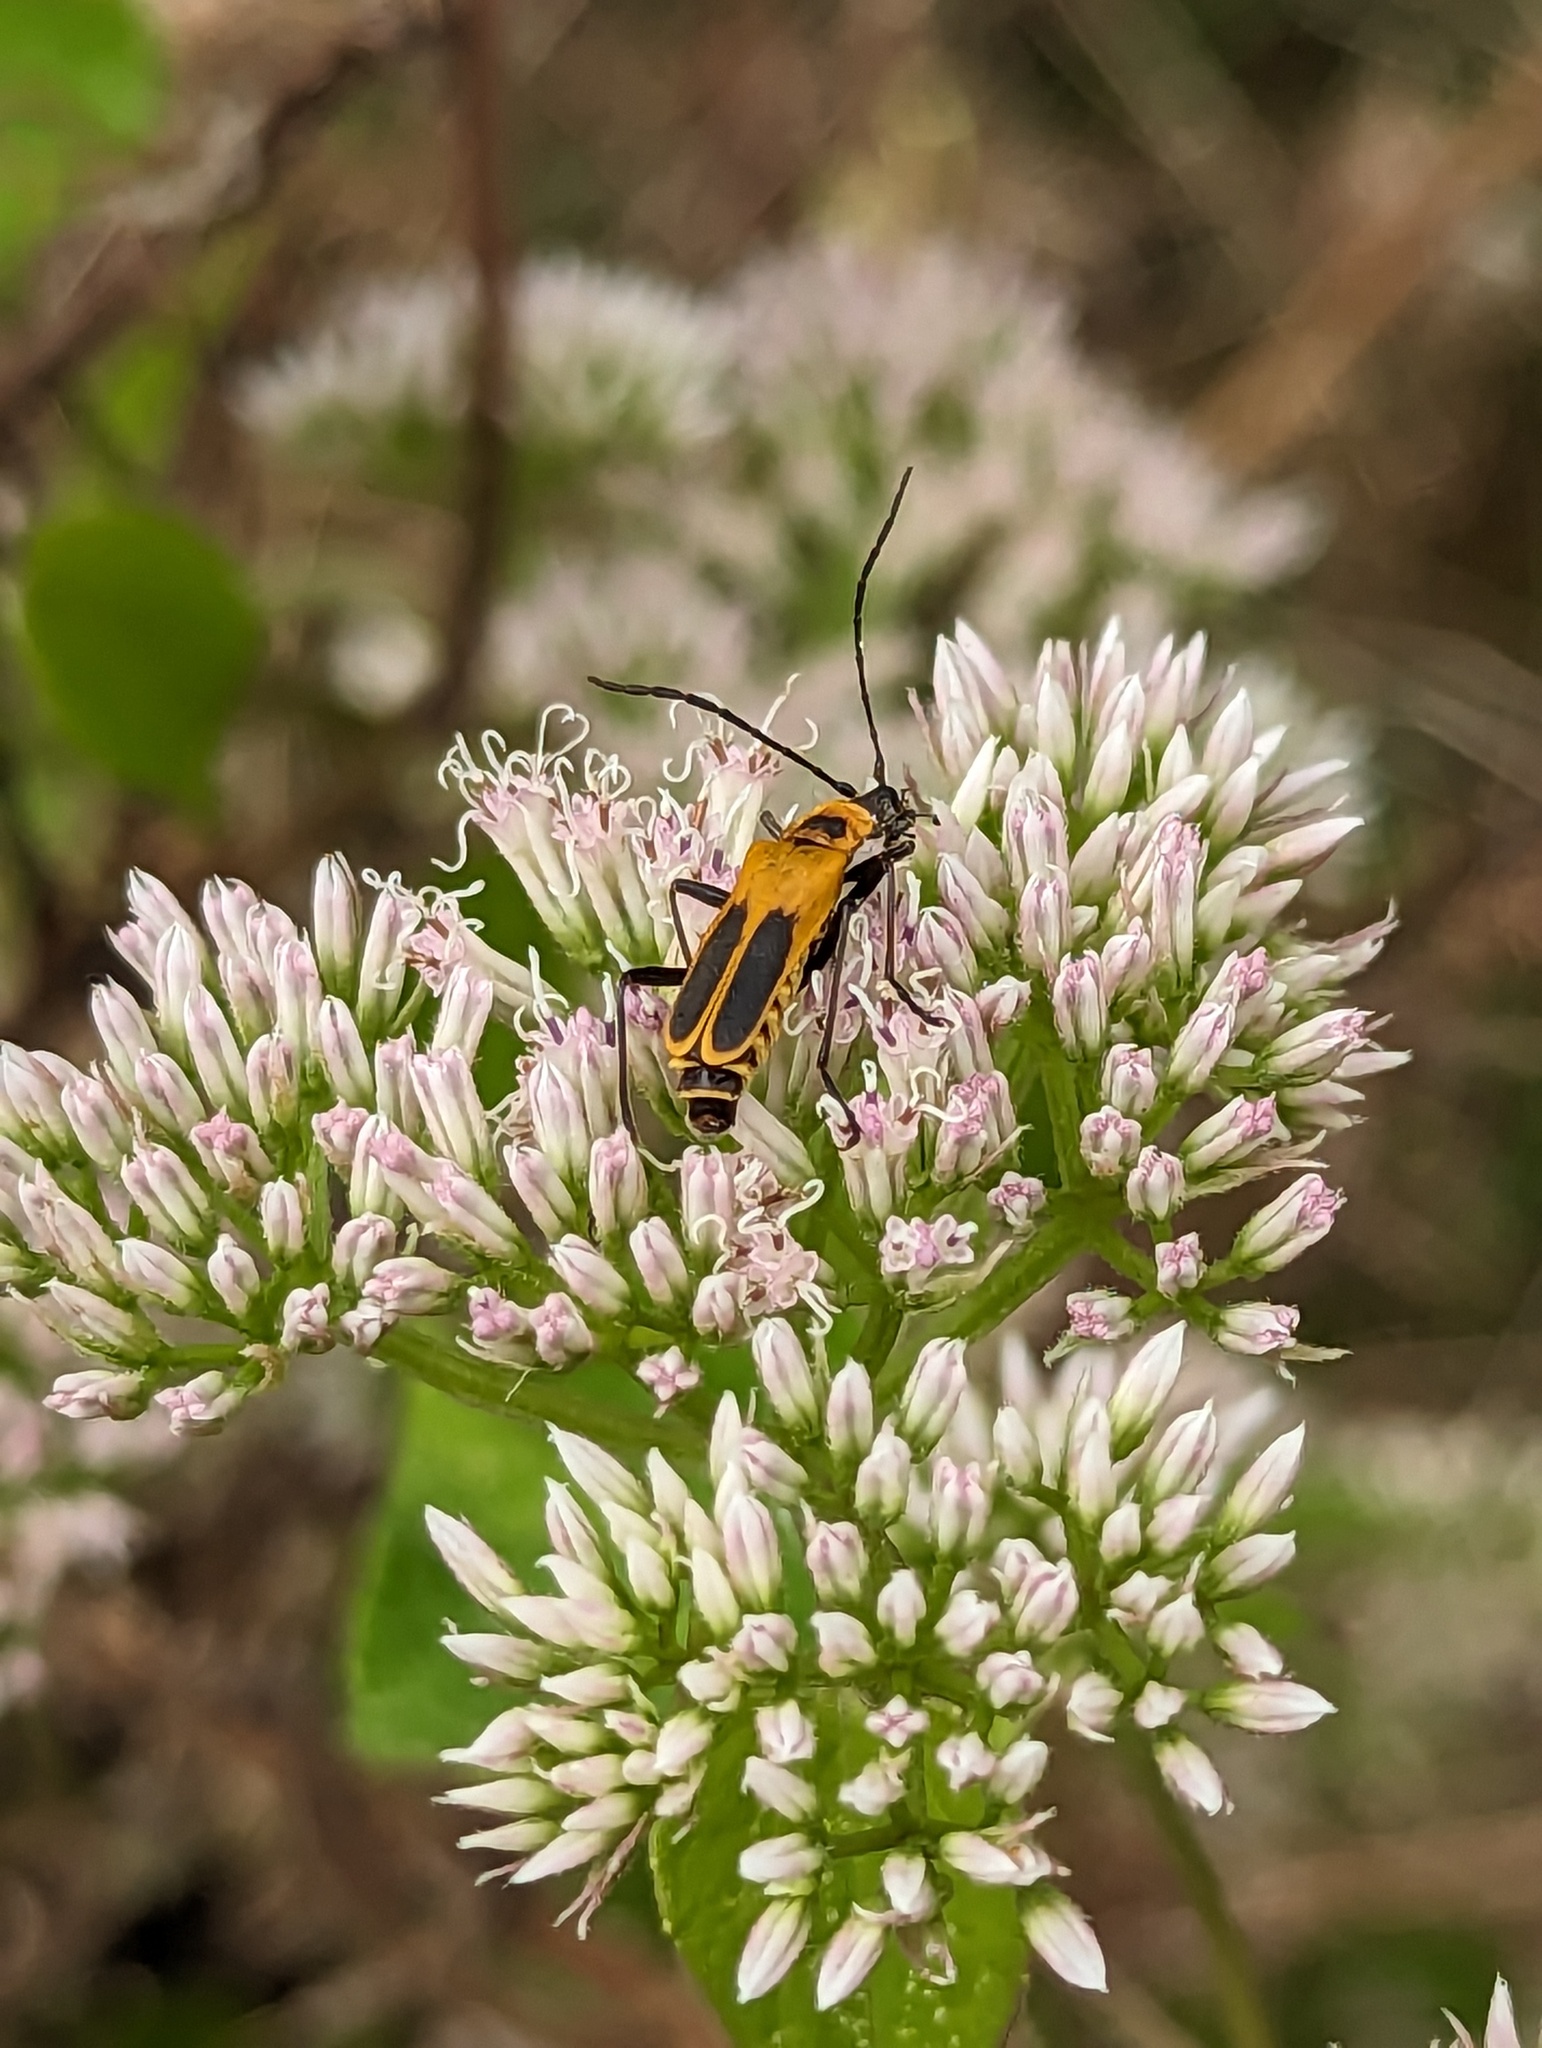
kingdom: Animalia
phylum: Arthropoda
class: Insecta
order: Coleoptera
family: Cantharidae
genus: Chauliognathus
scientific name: Chauliognathus pensylvanicus
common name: Goldenrod soldier beetle
